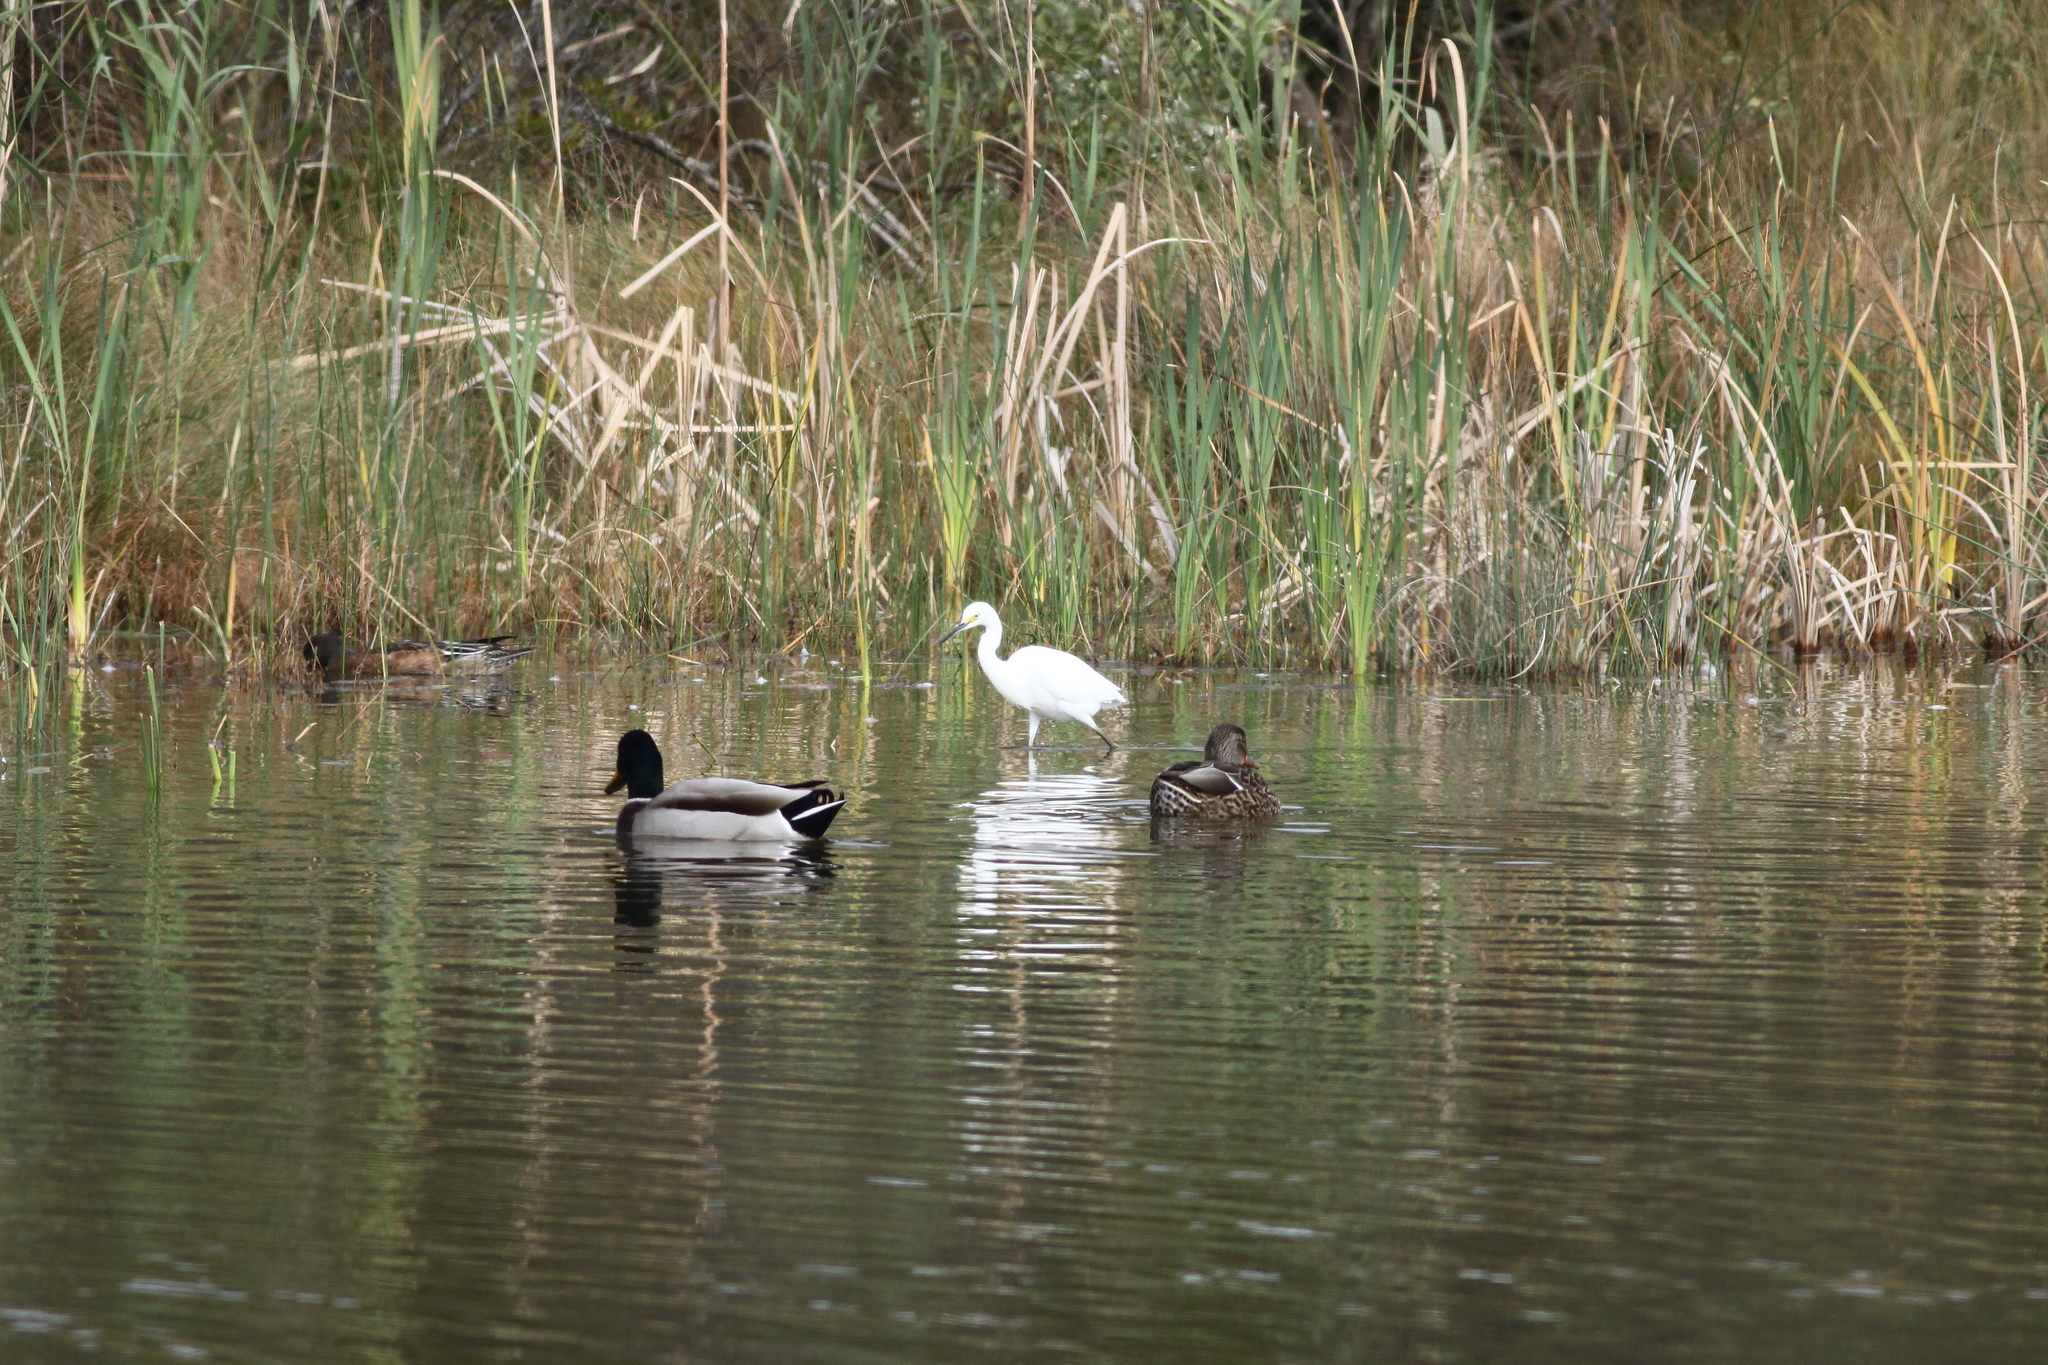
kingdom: Animalia
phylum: Chordata
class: Aves
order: Pelecaniformes
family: Ardeidae
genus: Egretta
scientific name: Egretta thula
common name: Snowy egret
